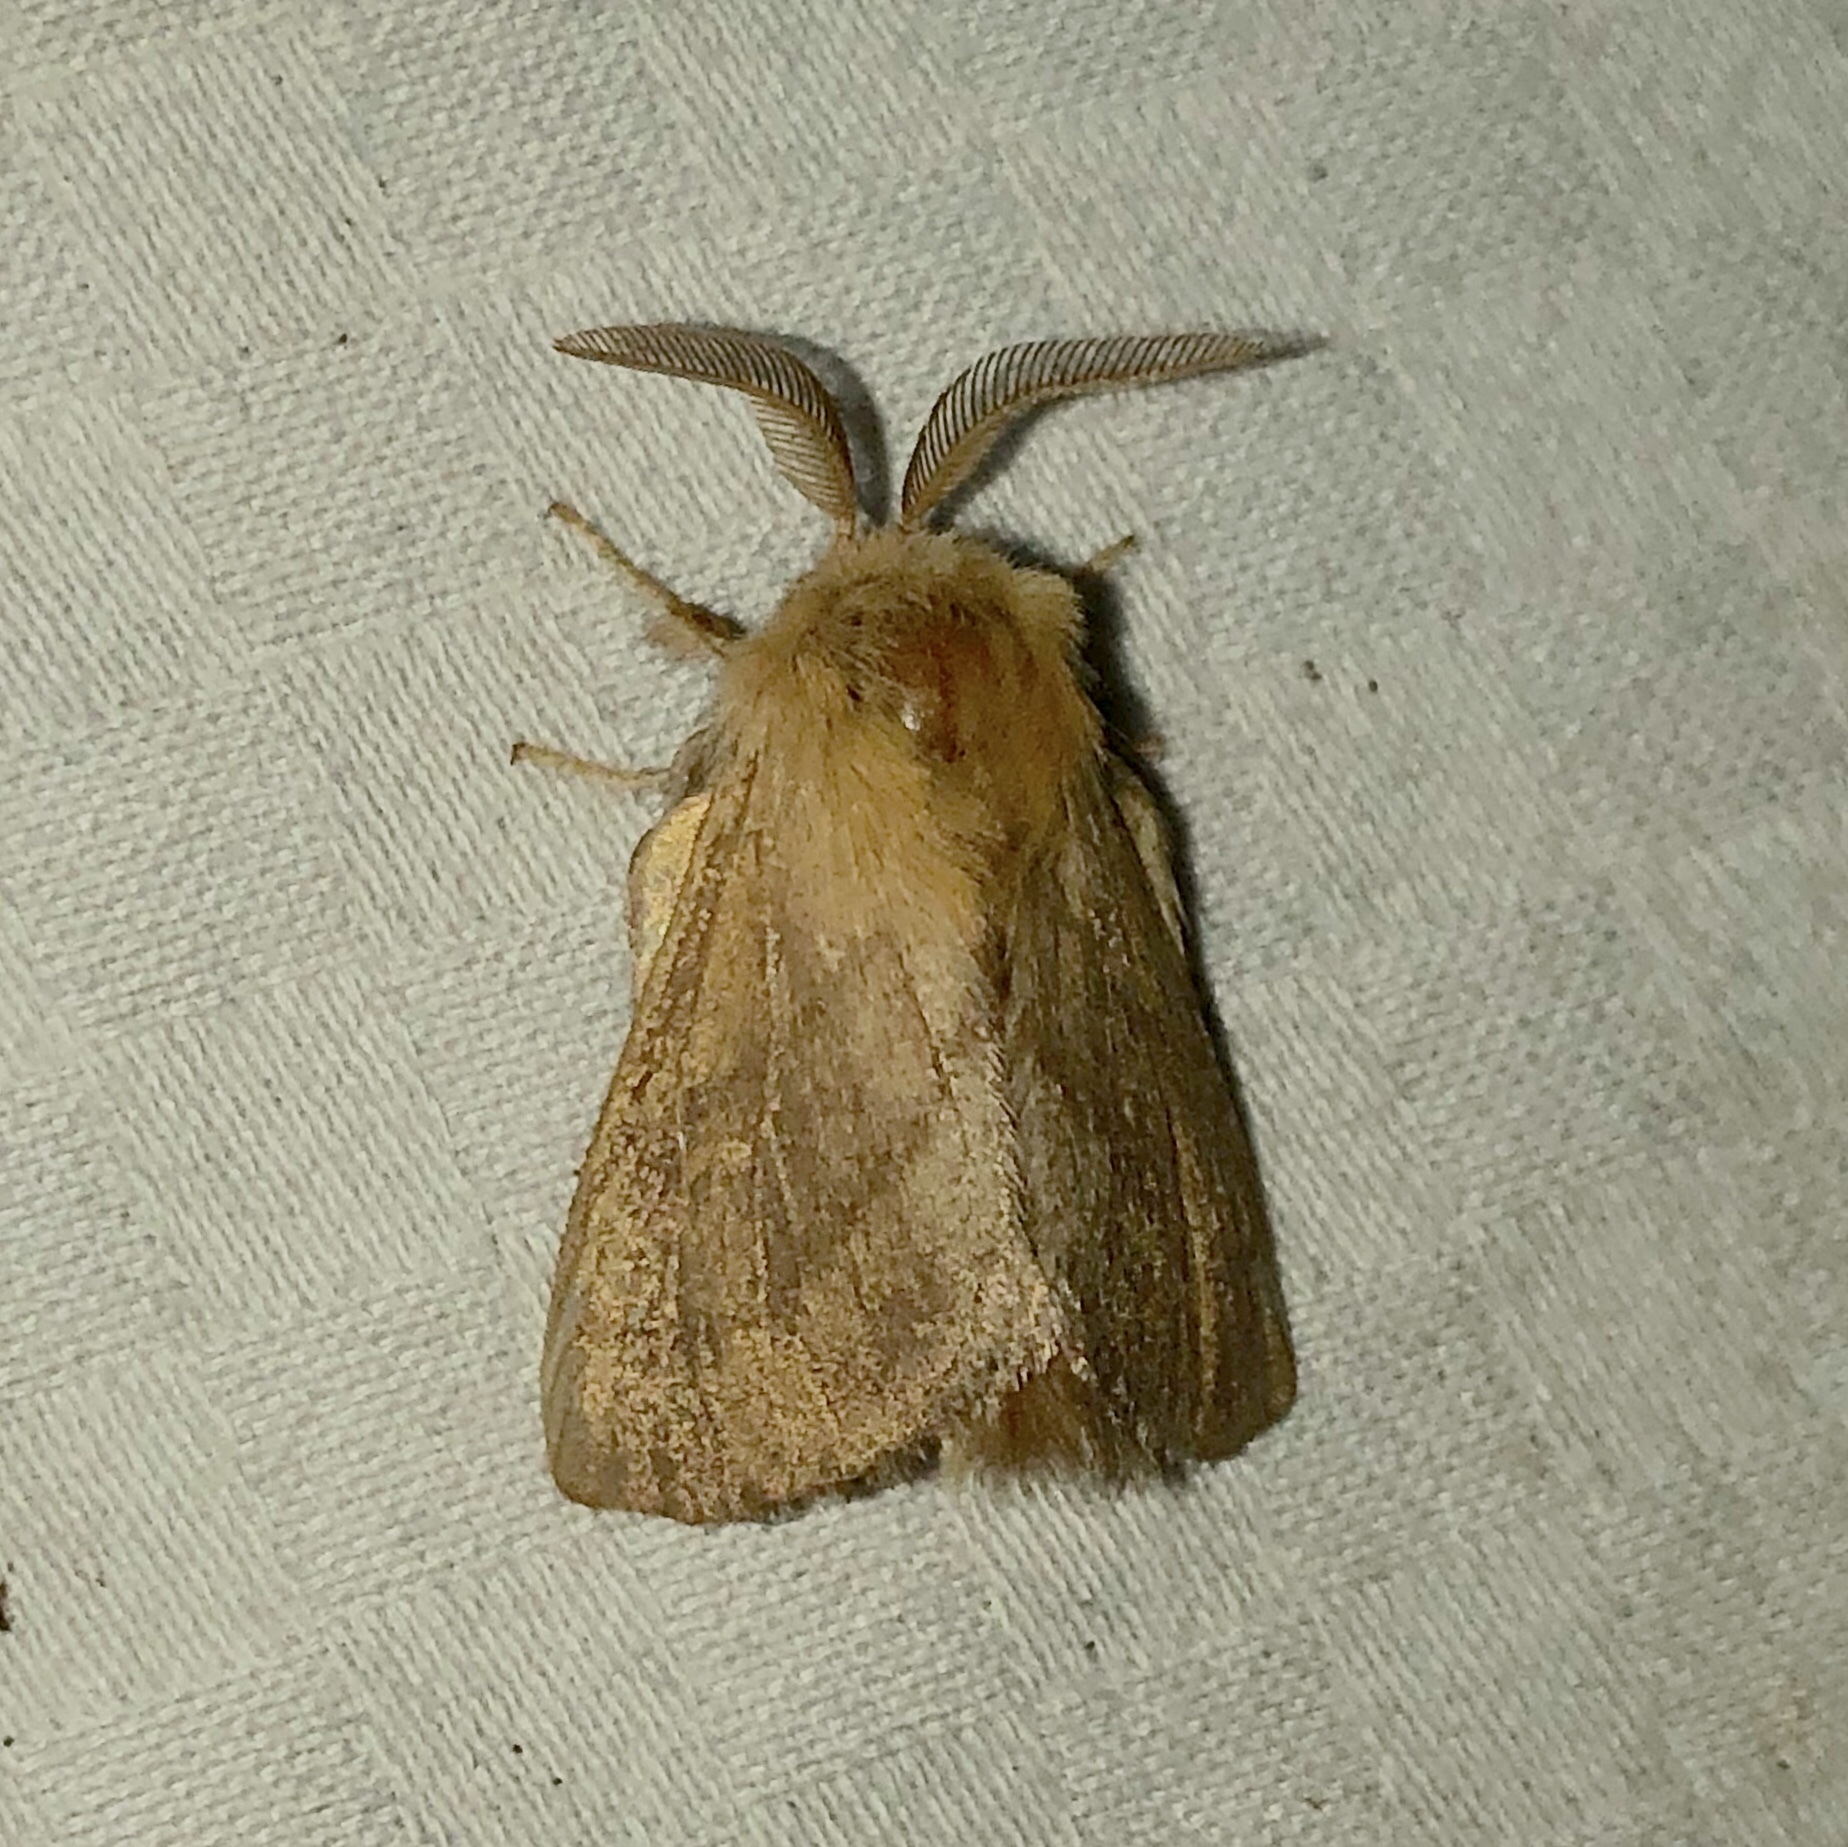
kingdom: Animalia
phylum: Arthropoda
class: Insecta
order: Lepidoptera
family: Lasiocampidae
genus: Malacosoma
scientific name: Malacosoma disstria
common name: Forest tent caterpillar
